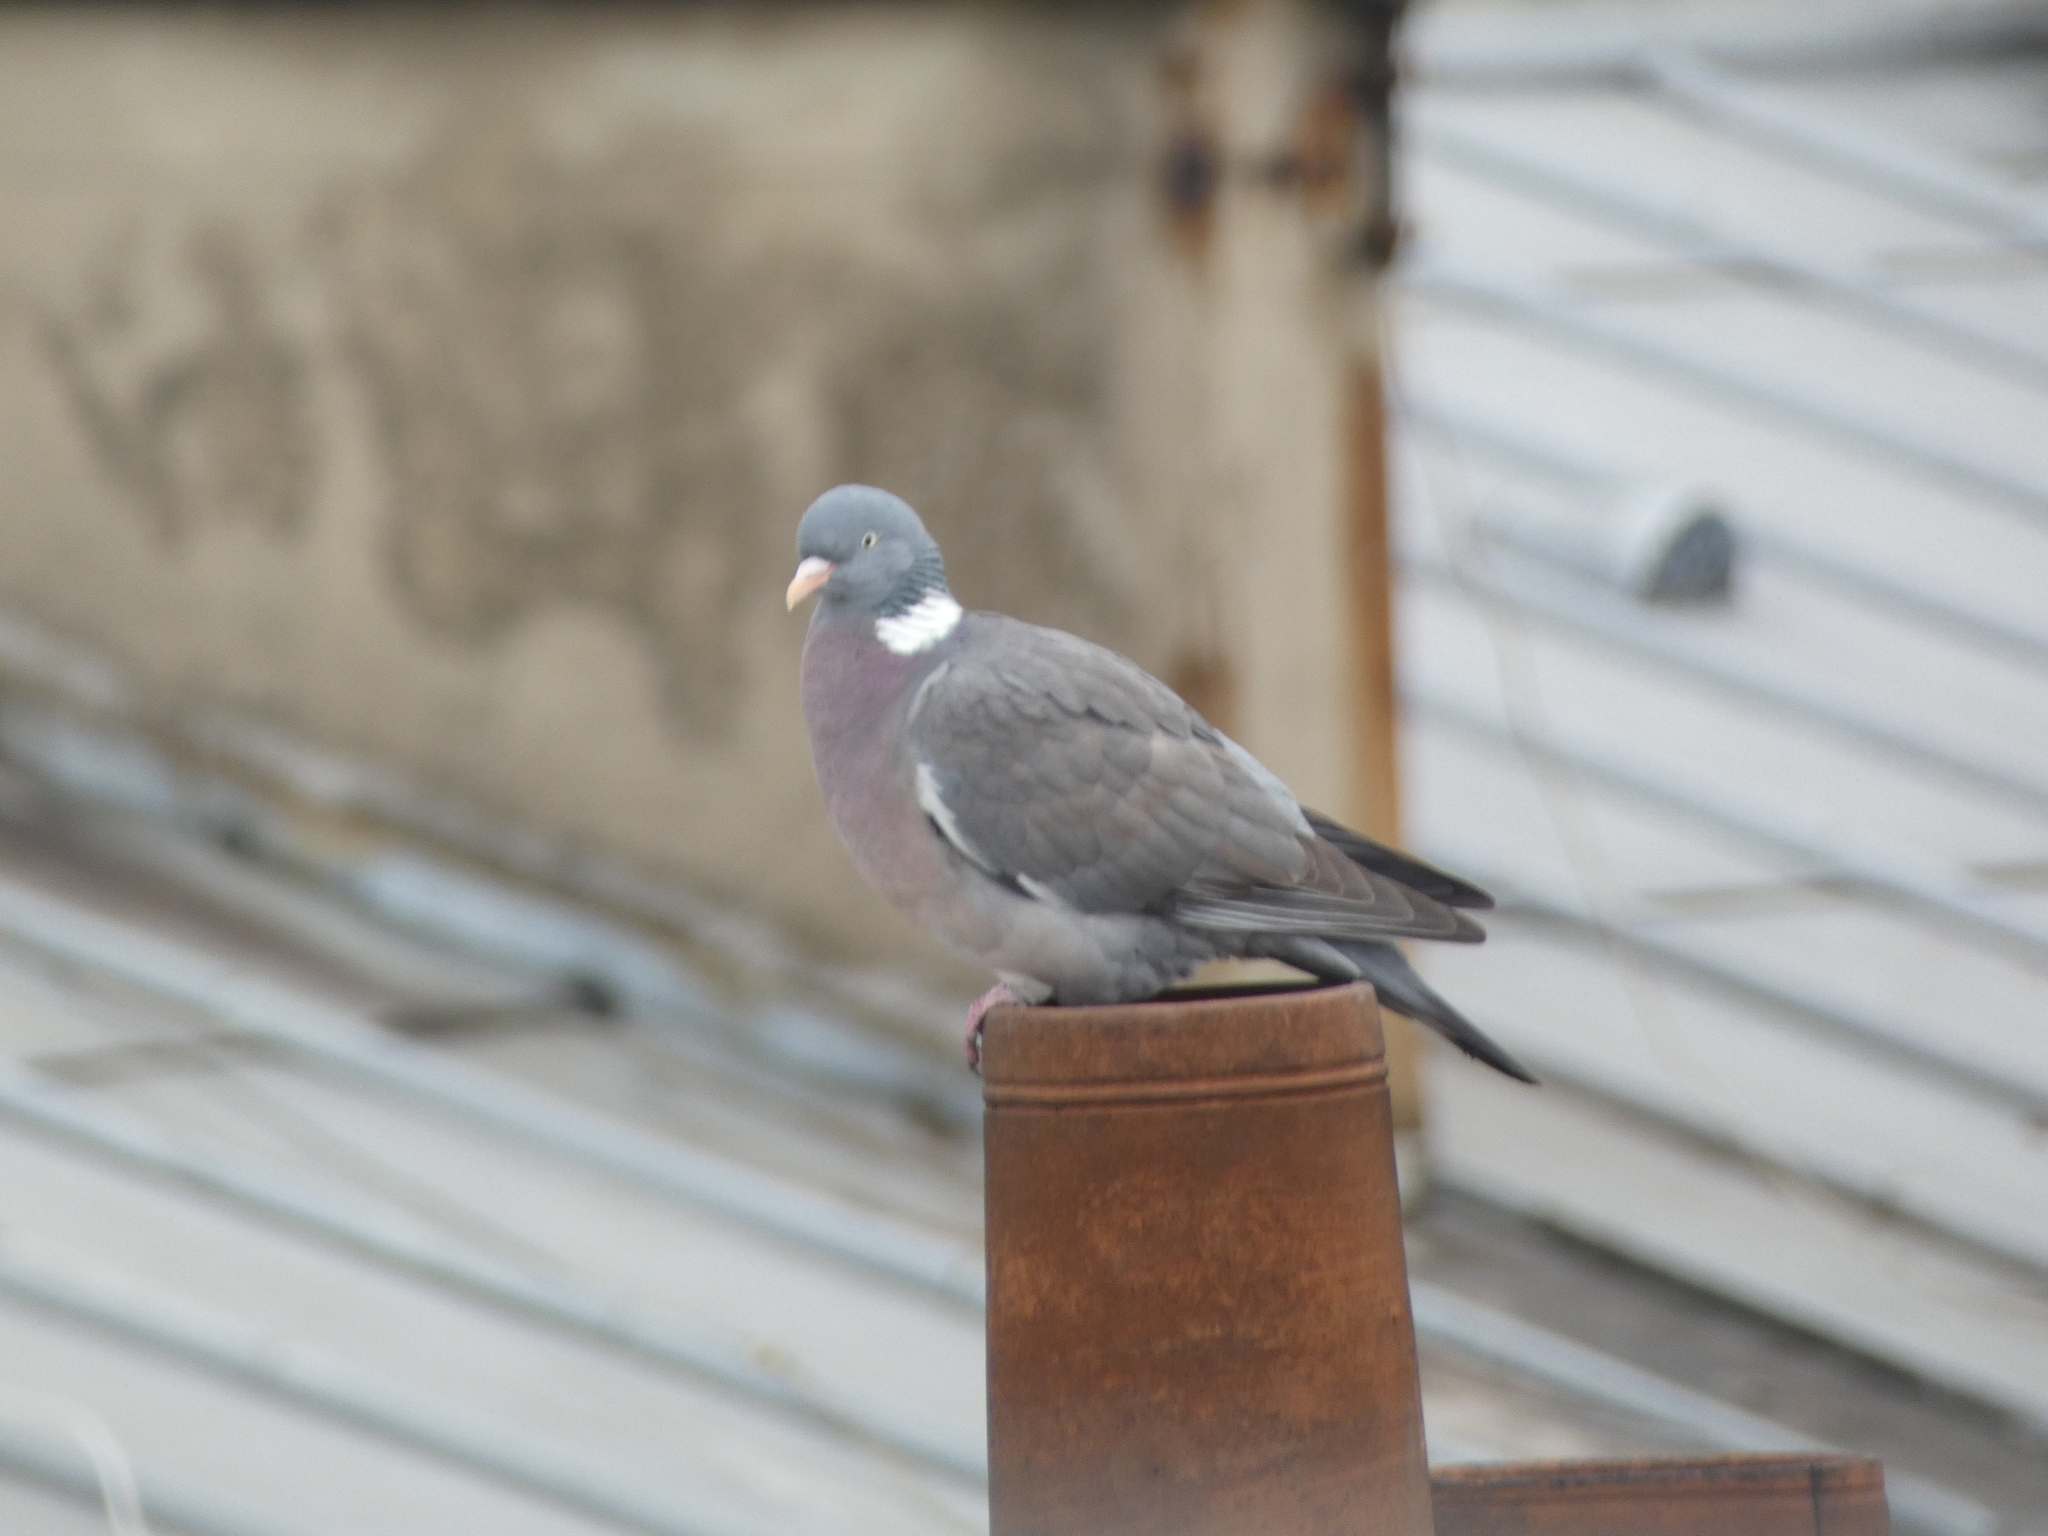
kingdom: Animalia
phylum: Chordata
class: Aves
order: Columbiformes
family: Columbidae
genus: Columba
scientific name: Columba palumbus
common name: Common wood pigeon
